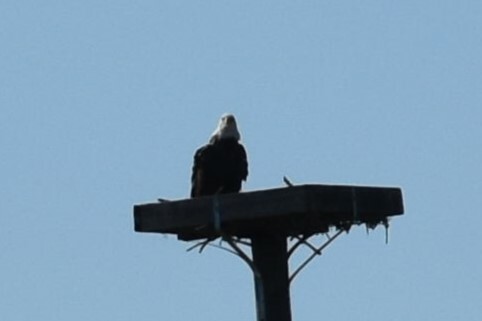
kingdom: Animalia
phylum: Chordata
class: Aves
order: Accipitriformes
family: Accipitridae
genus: Haliaeetus
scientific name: Haliaeetus leucocephalus
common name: Bald eagle
